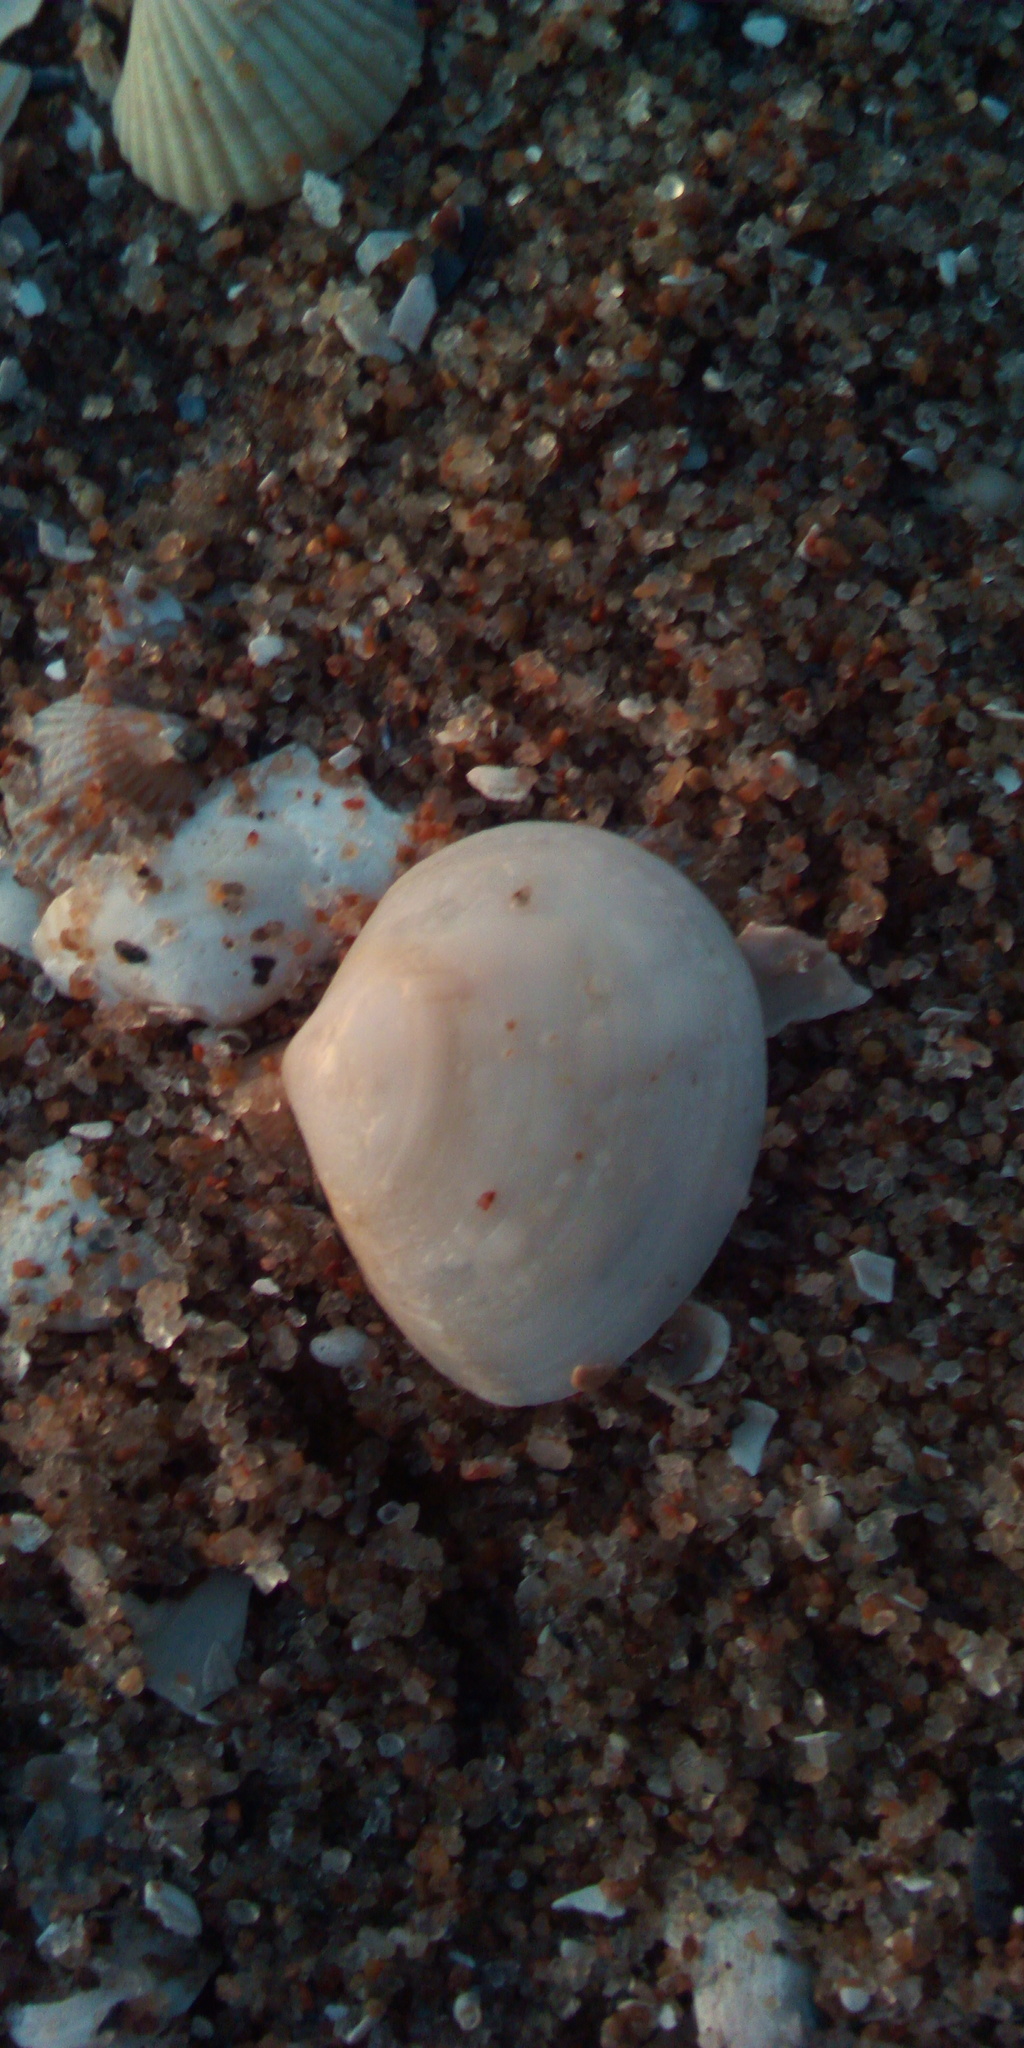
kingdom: Animalia
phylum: Mollusca
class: Bivalvia
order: Cardiida
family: Tellinidae
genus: Macoma
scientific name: Macoma balthica
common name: Baltic tellin
